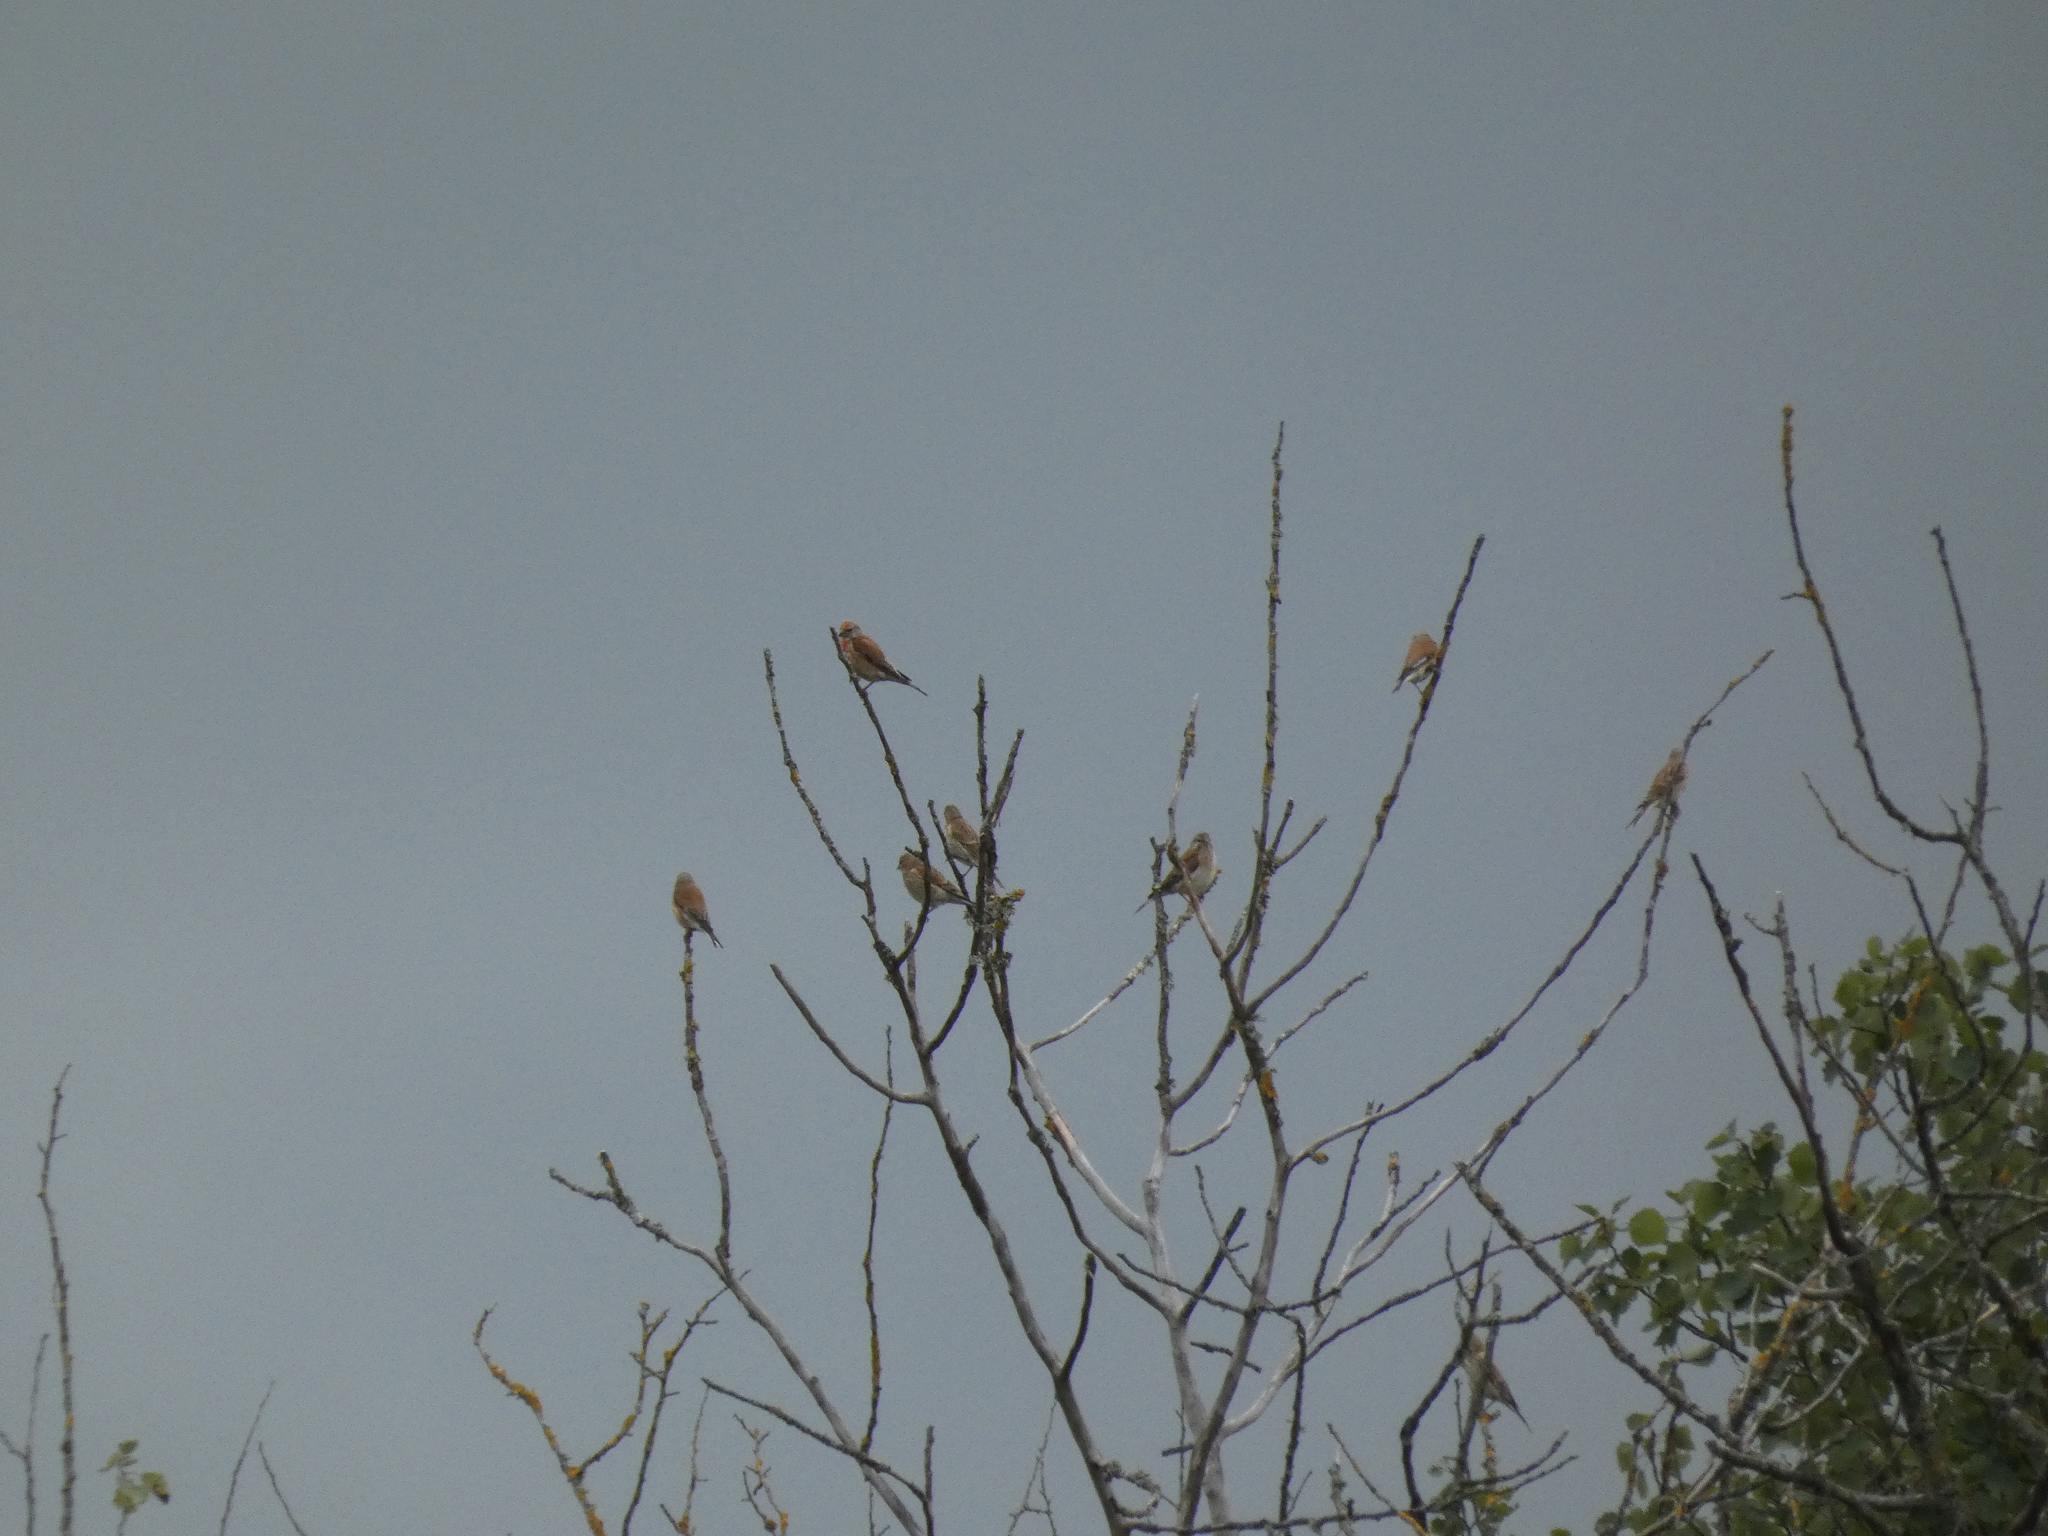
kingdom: Animalia
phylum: Chordata
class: Aves
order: Passeriformes
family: Fringillidae
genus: Linaria
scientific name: Linaria cannabina
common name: Common linnet
